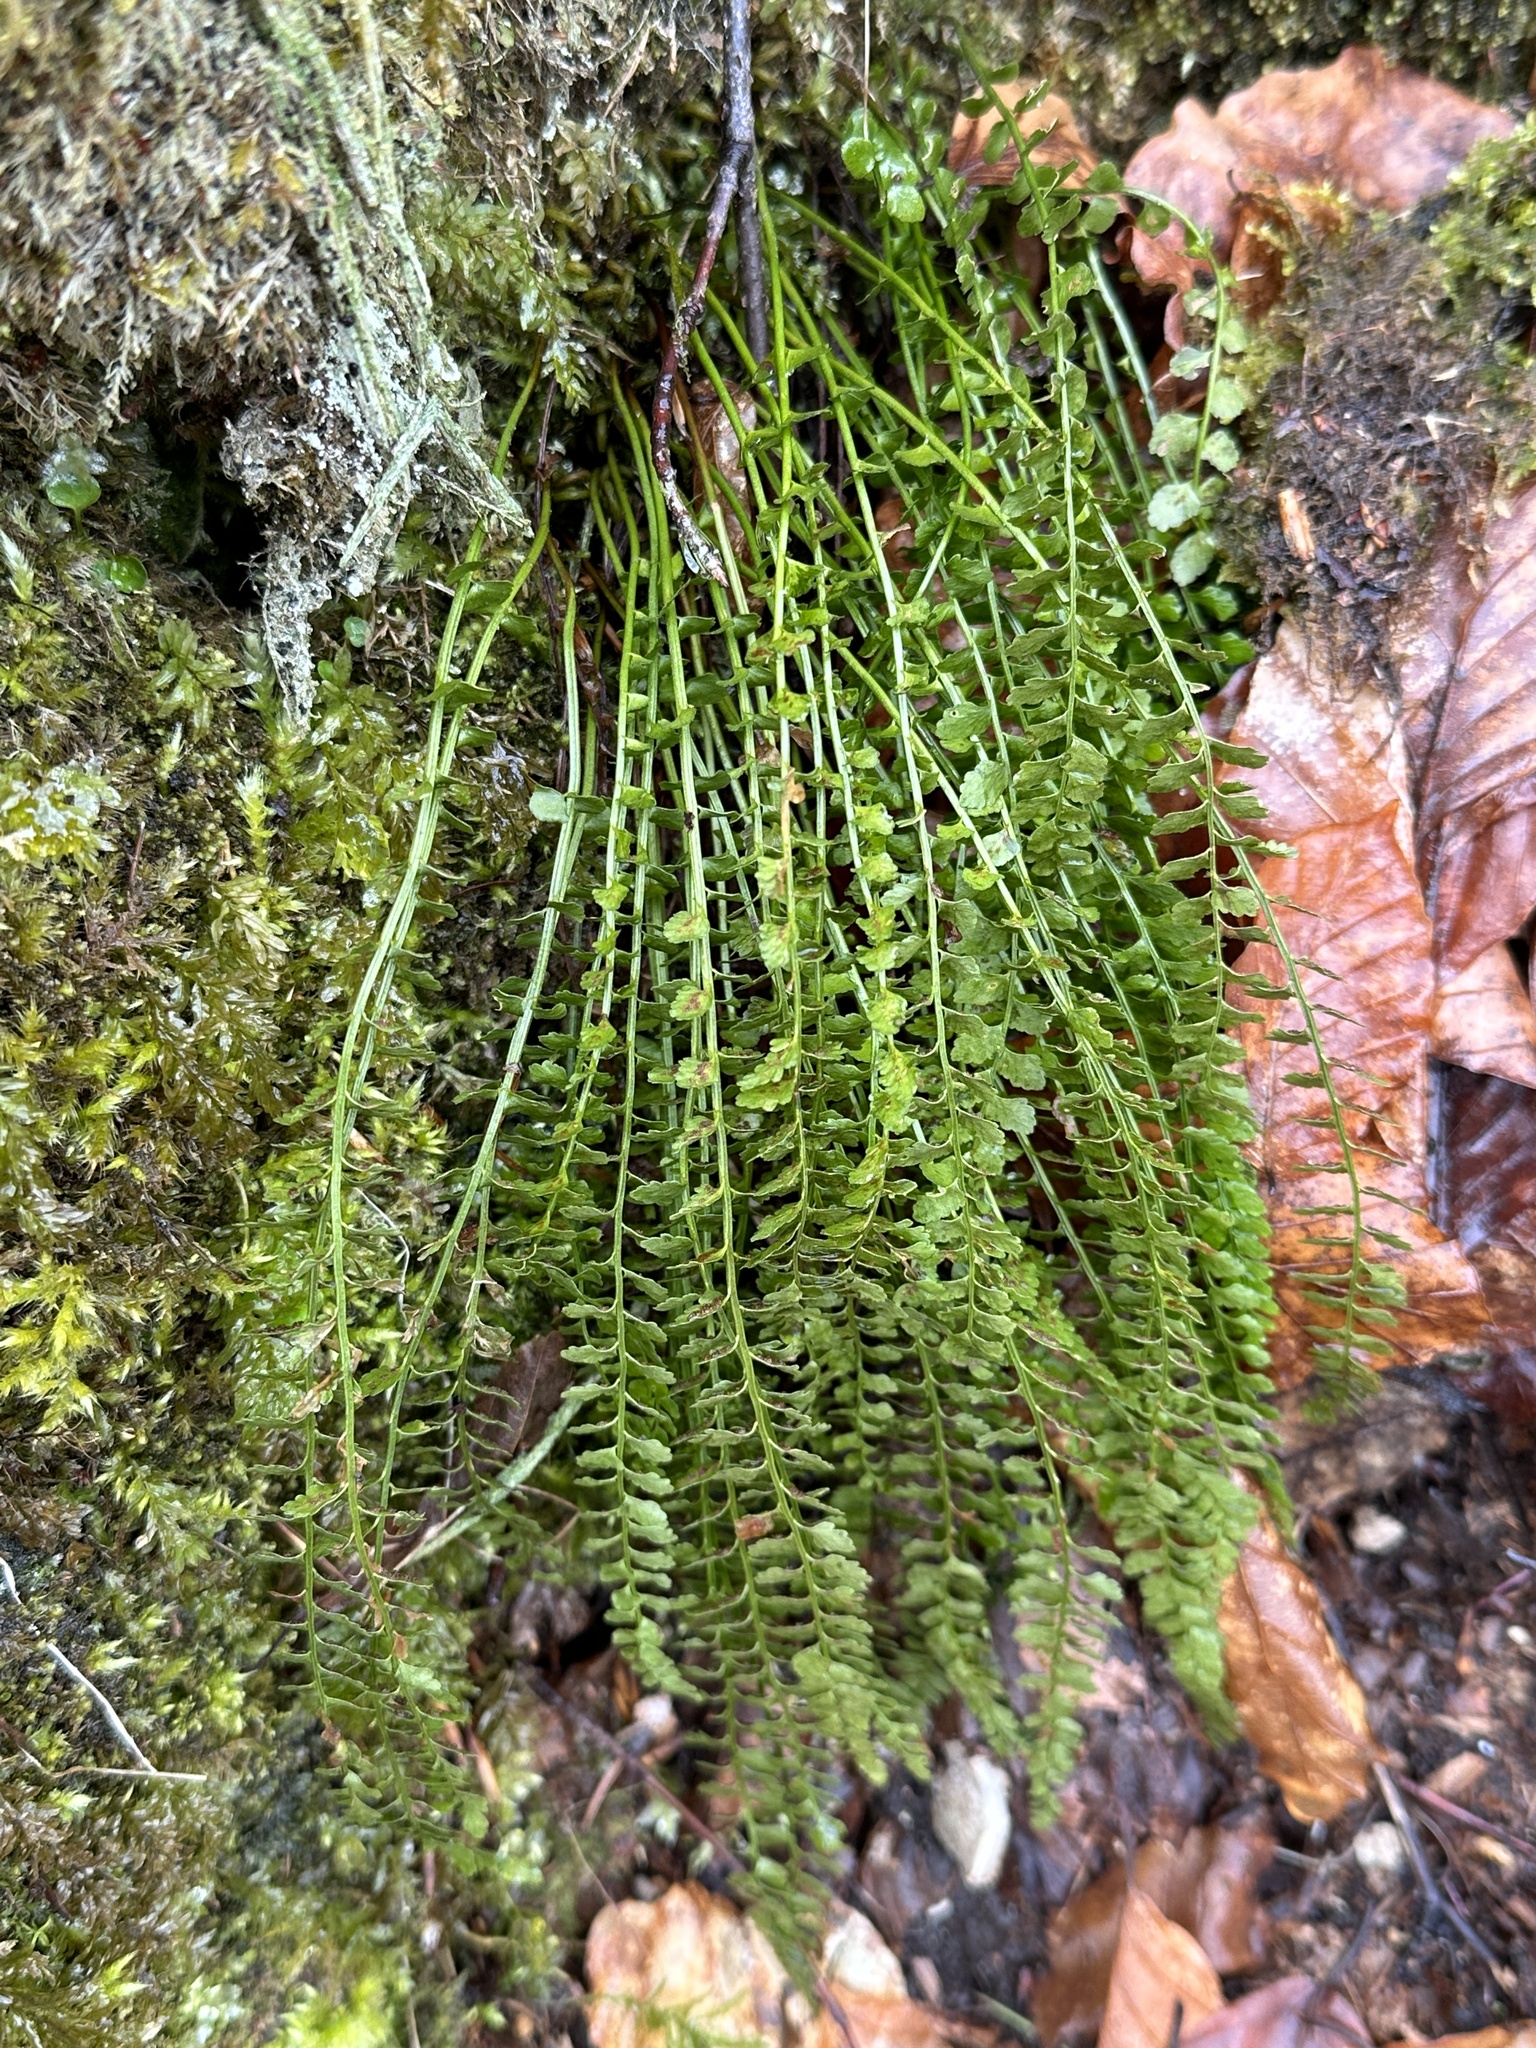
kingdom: Plantae
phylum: Tracheophyta
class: Polypodiopsida
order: Polypodiales
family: Aspleniaceae
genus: Asplenium
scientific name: Asplenium viride
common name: Green spleenwort
